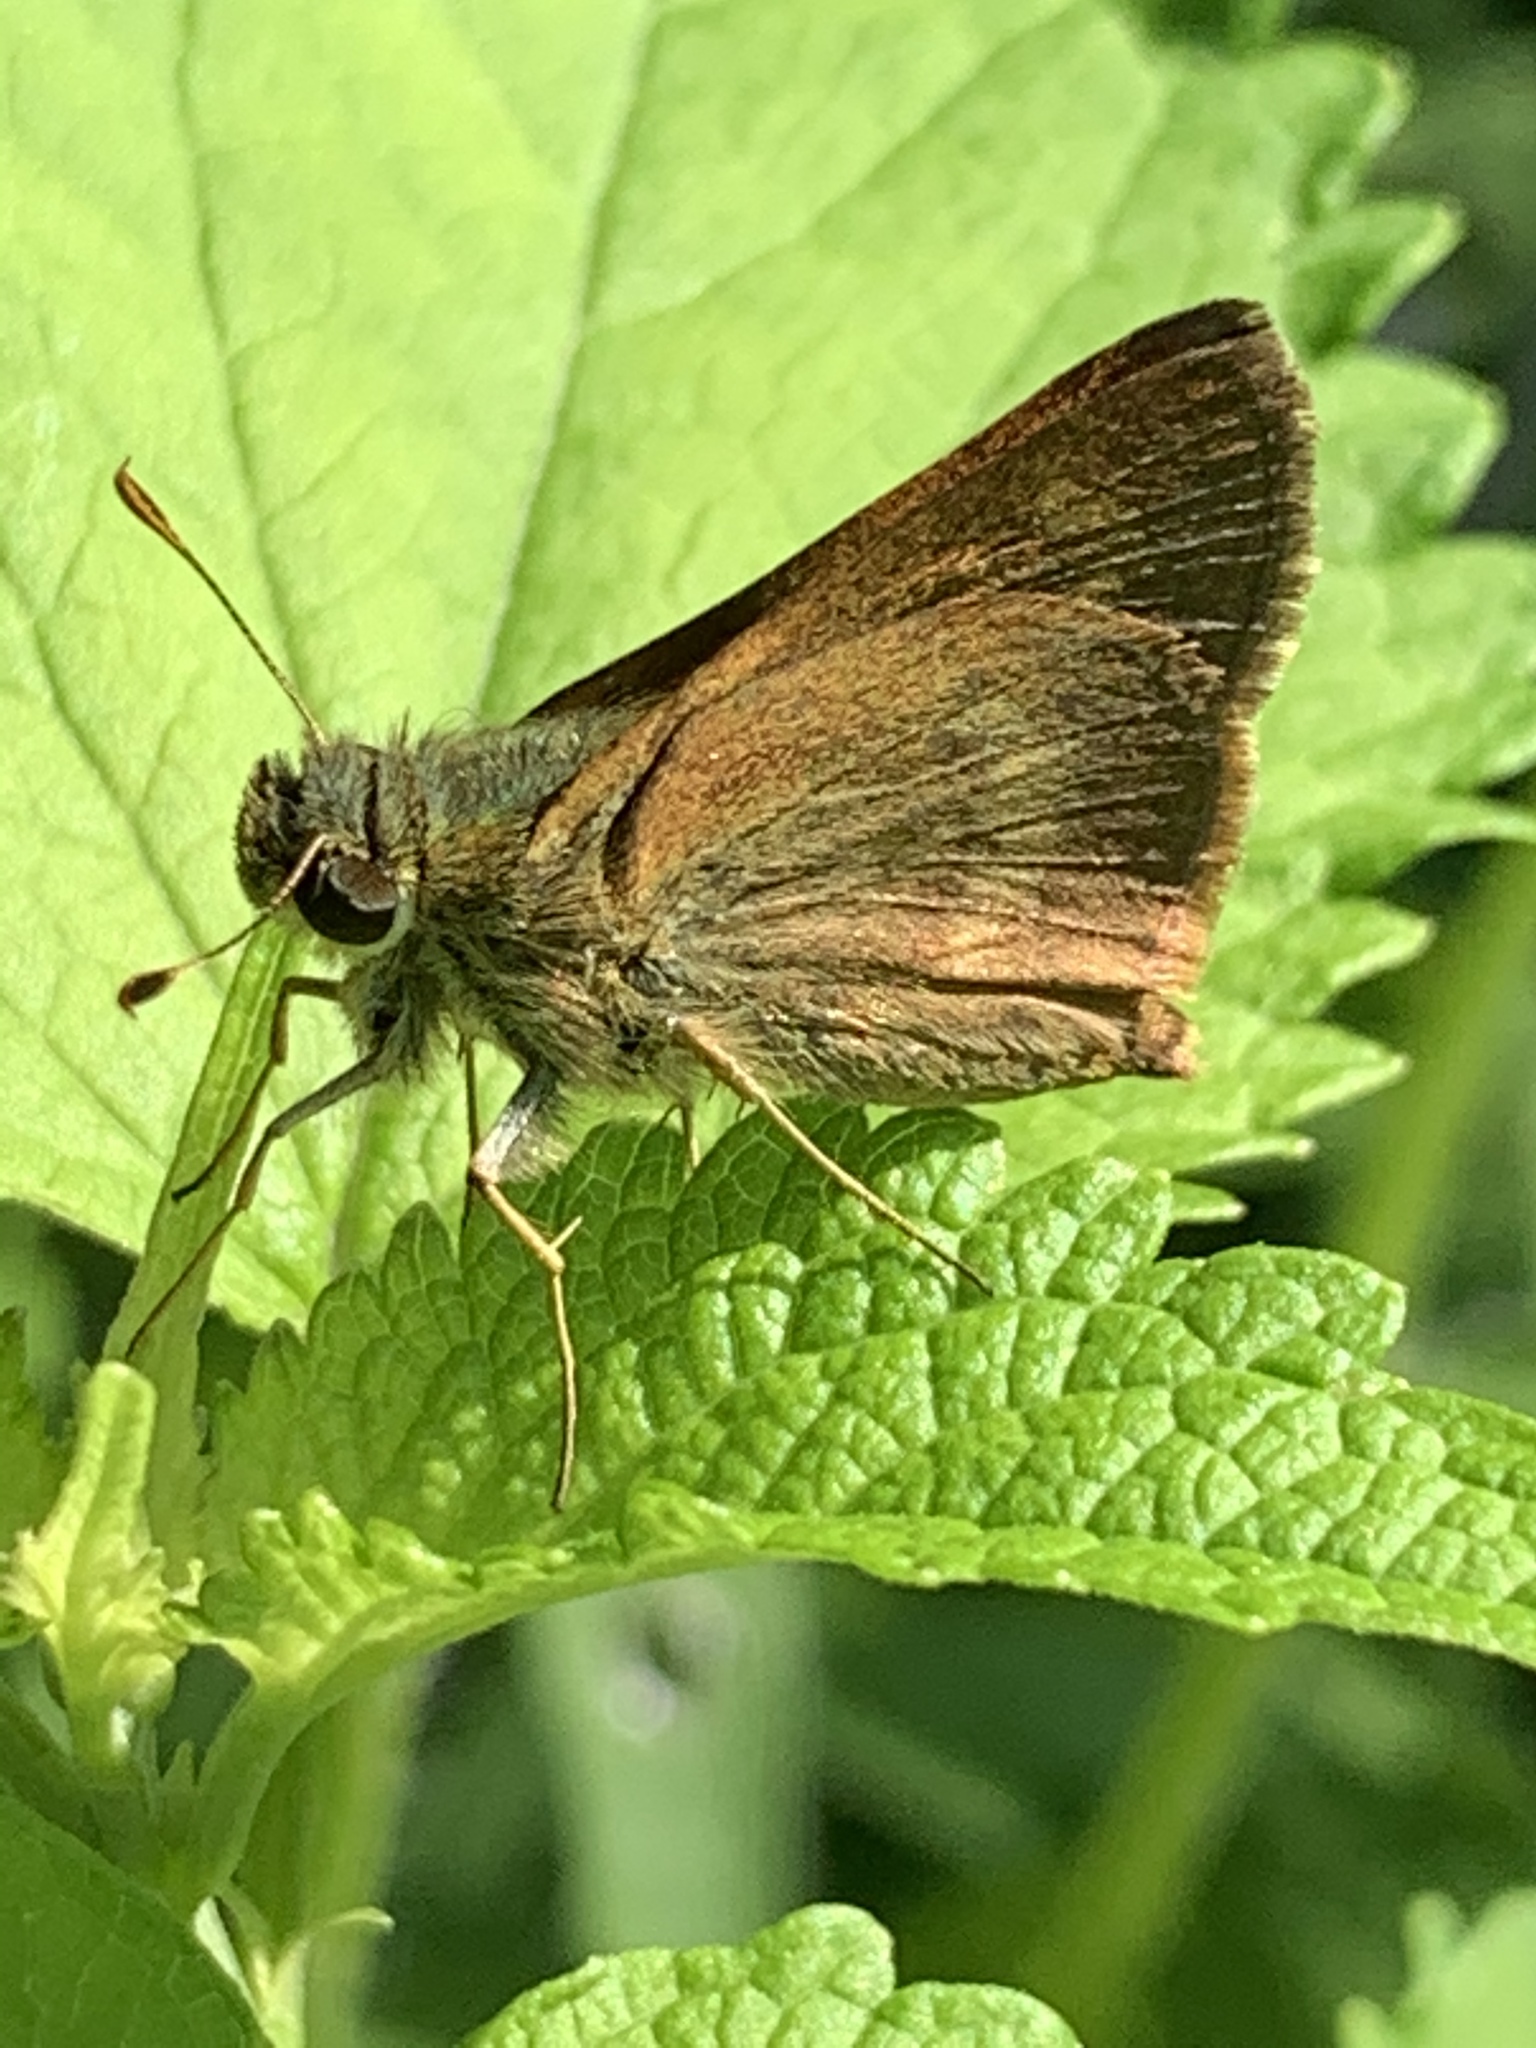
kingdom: Animalia
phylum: Arthropoda
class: Insecta
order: Lepidoptera
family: Hesperiidae
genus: Polites
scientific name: Polites egeremet
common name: Northern broken-dash
